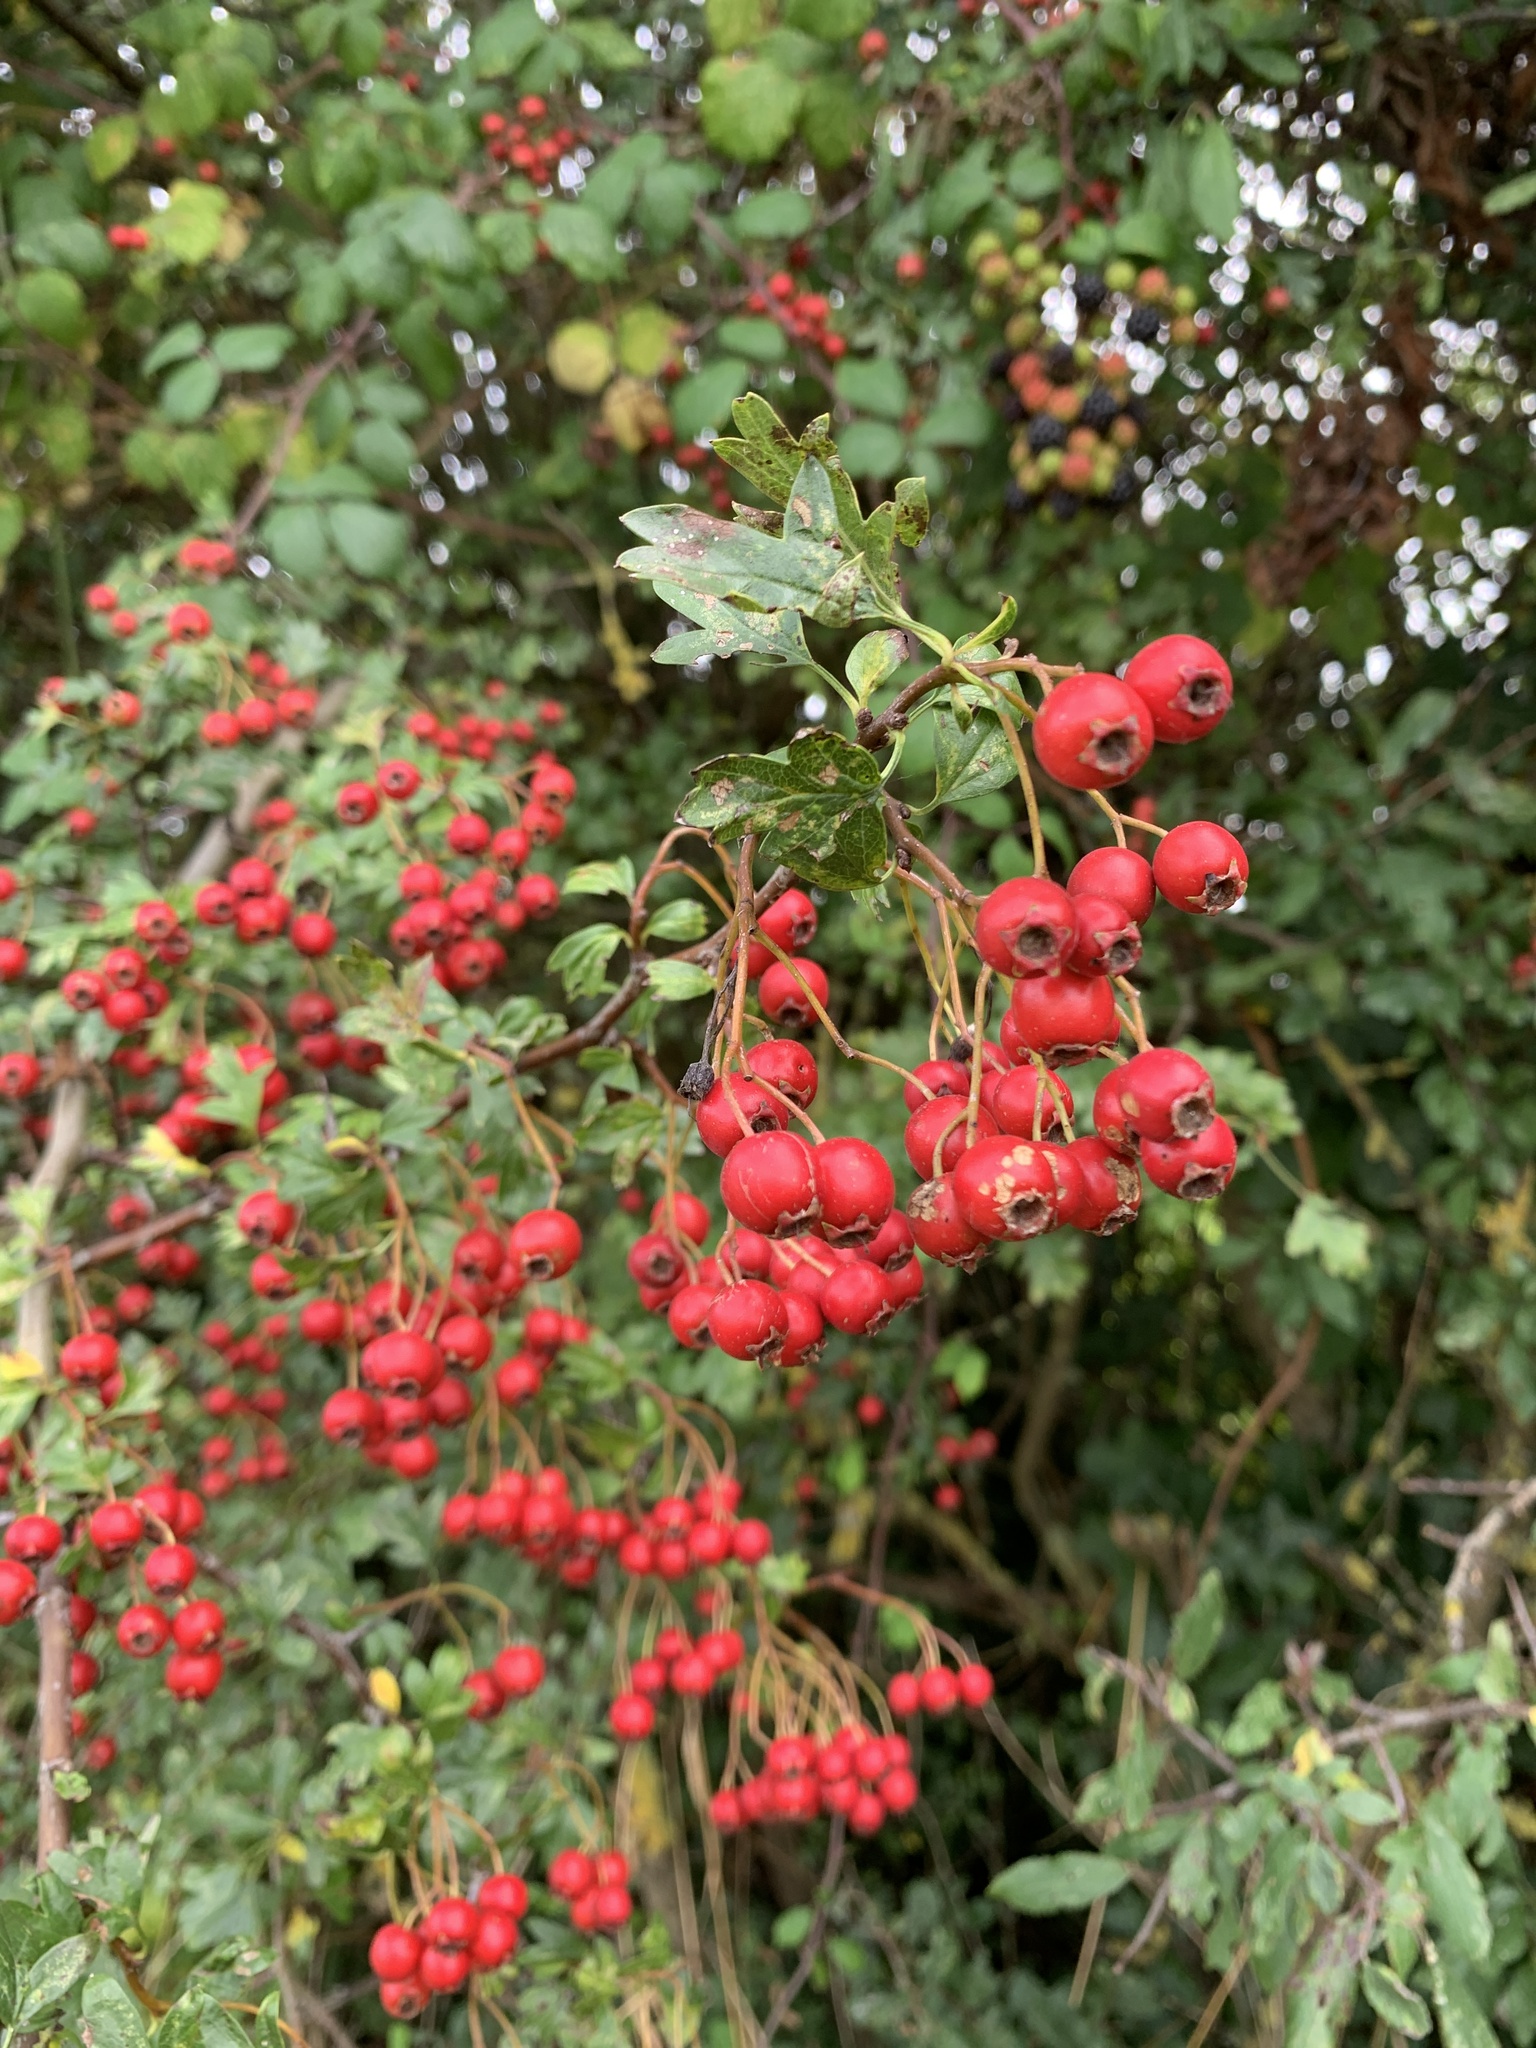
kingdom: Plantae
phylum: Tracheophyta
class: Magnoliopsida
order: Rosales
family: Rosaceae
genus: Crataegus
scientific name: Crataegus monogyna
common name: Hawthorn
